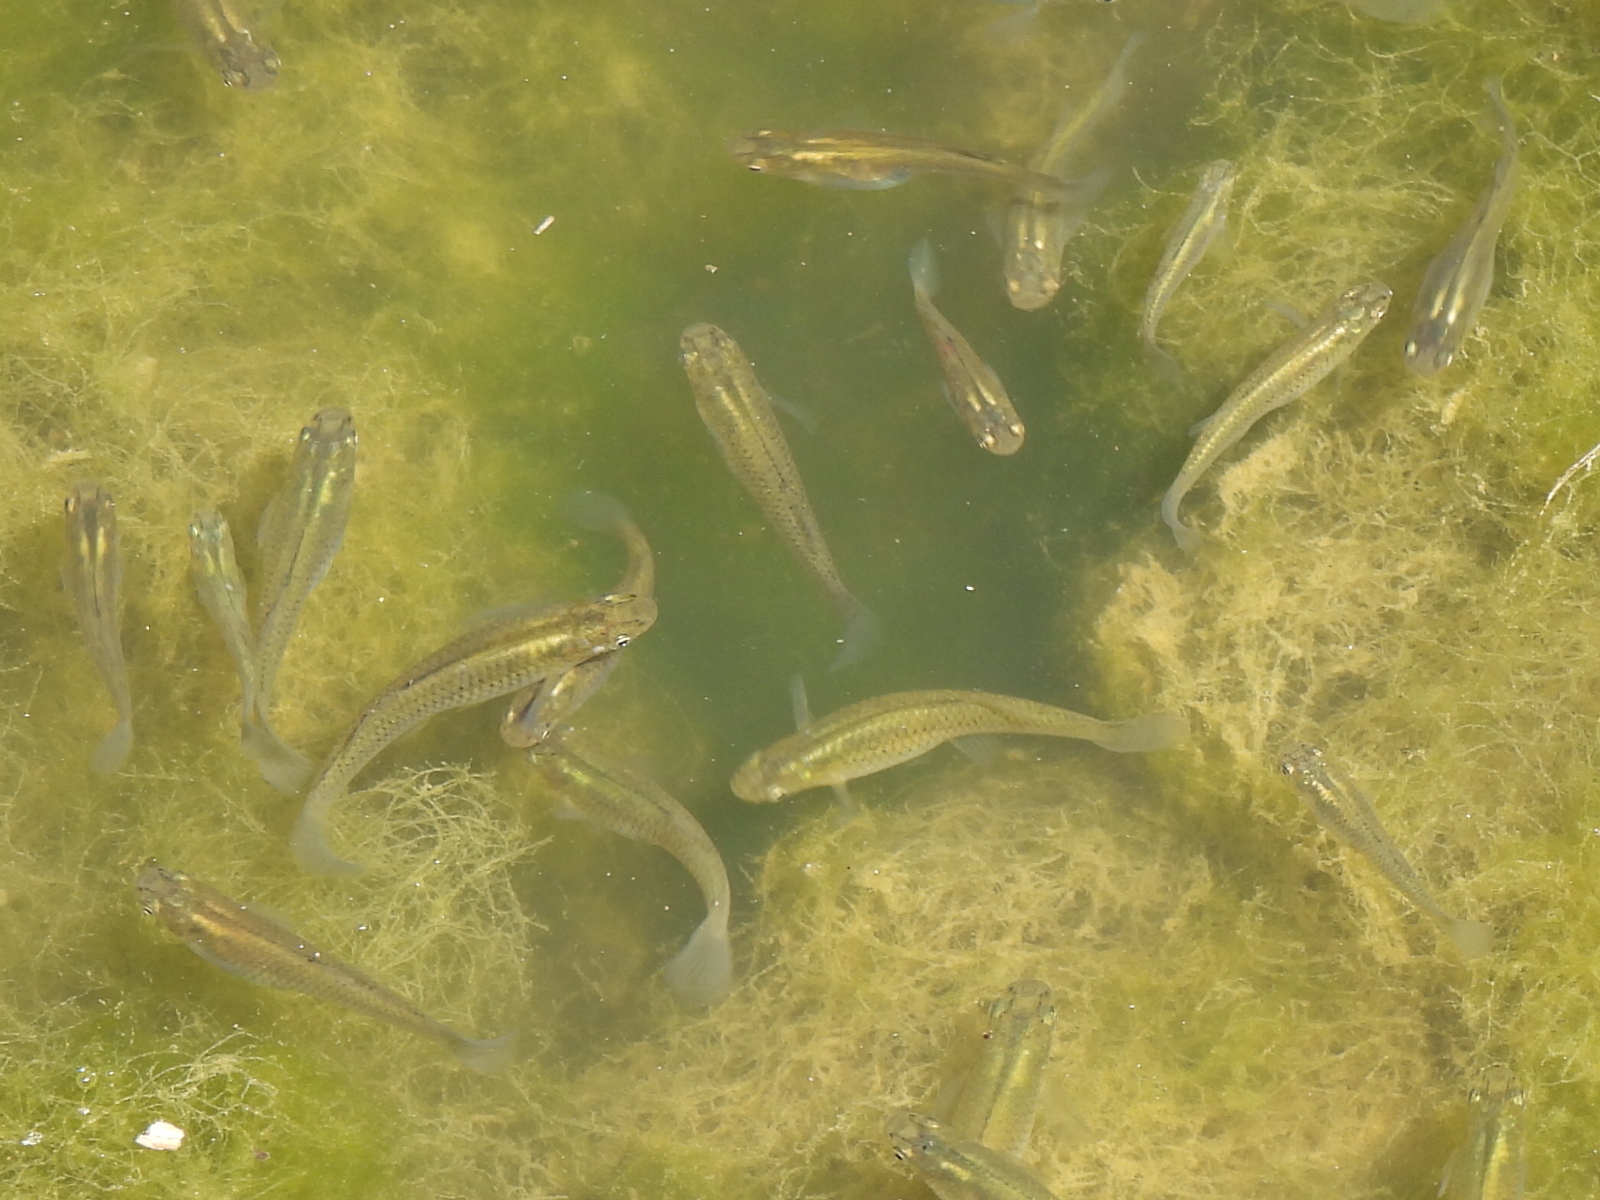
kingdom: Animalia
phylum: Chordata
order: Cyprinodontiformes
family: Poeciliidae
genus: Gambusia
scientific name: Gambusia affinis
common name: Mosquitofish
